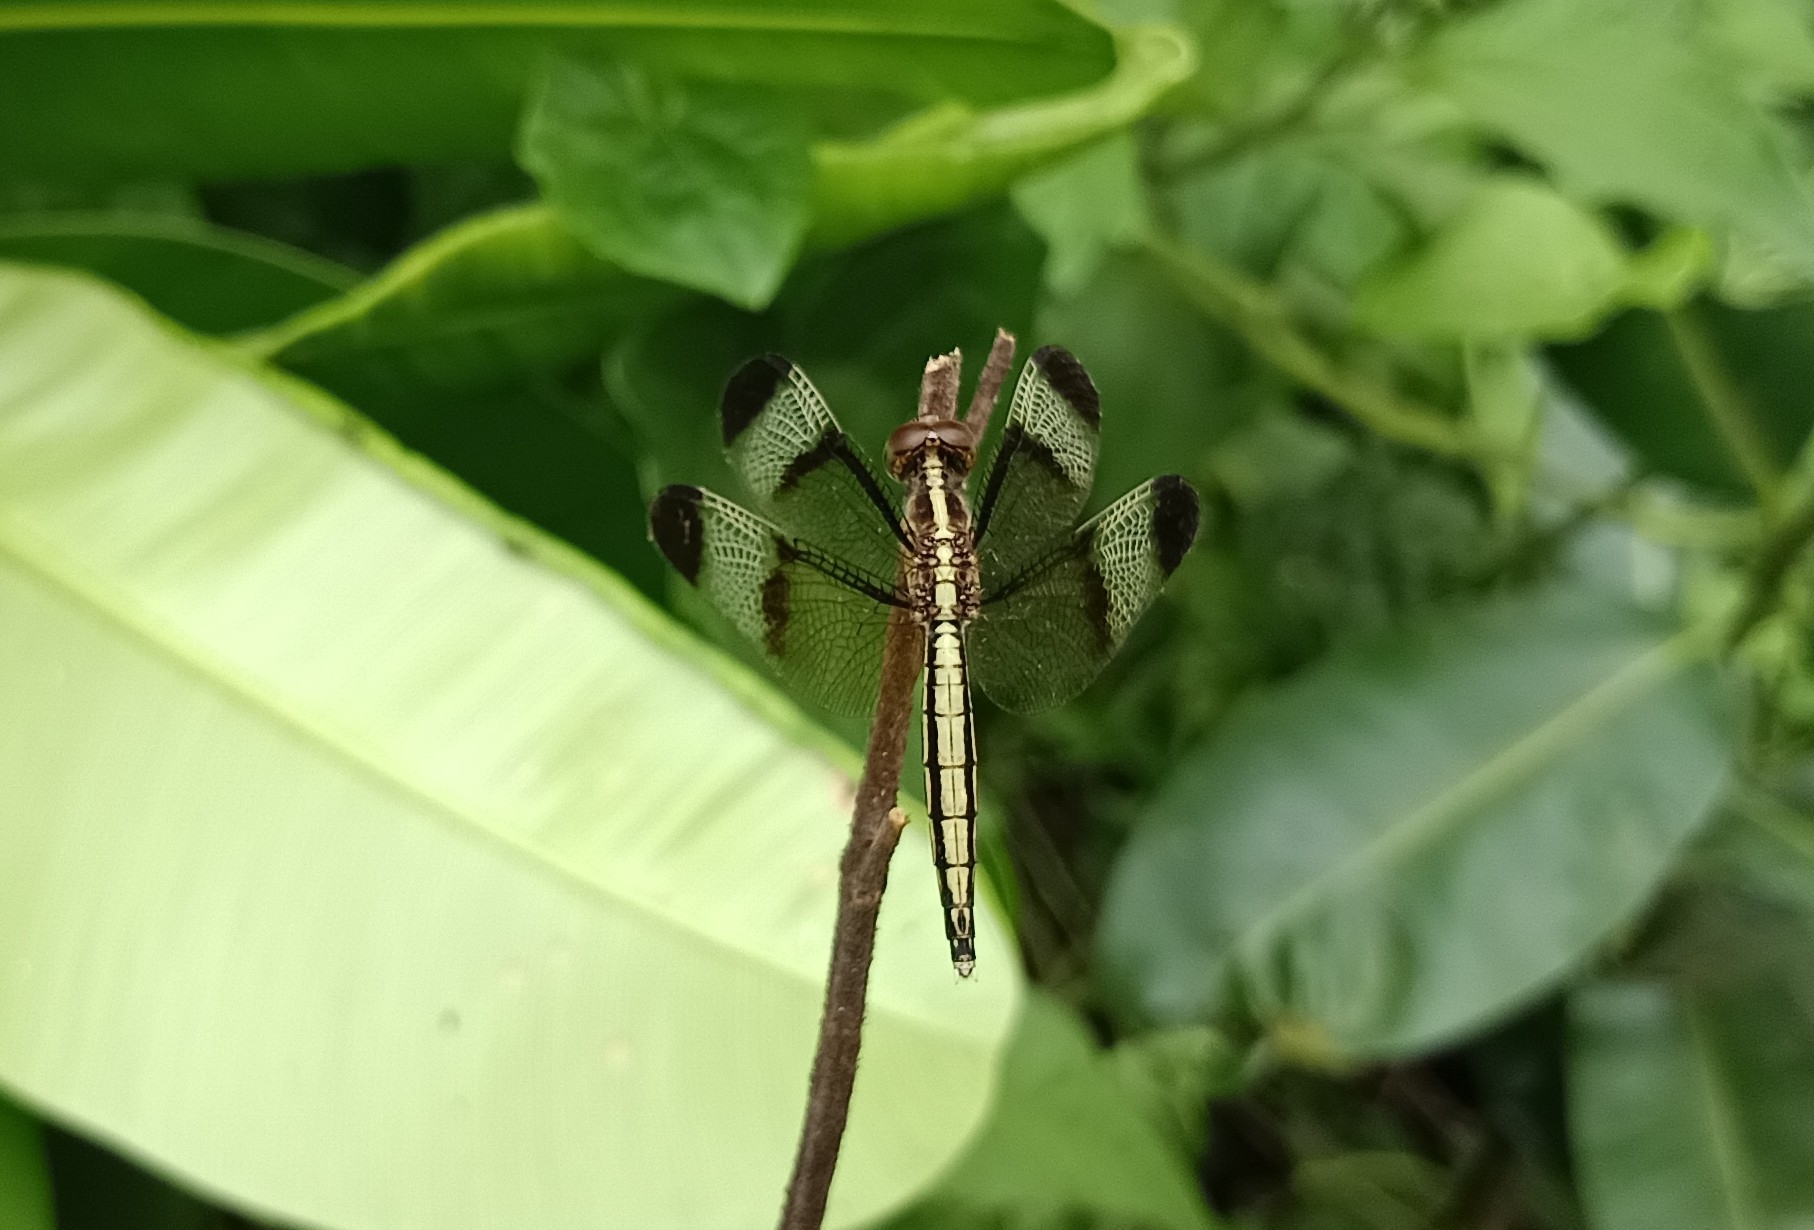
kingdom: Animalia
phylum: Arthropoda
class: Insecta
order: Odonata
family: Libellulidae
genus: Neurothemis
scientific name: Neurothemis tullia
